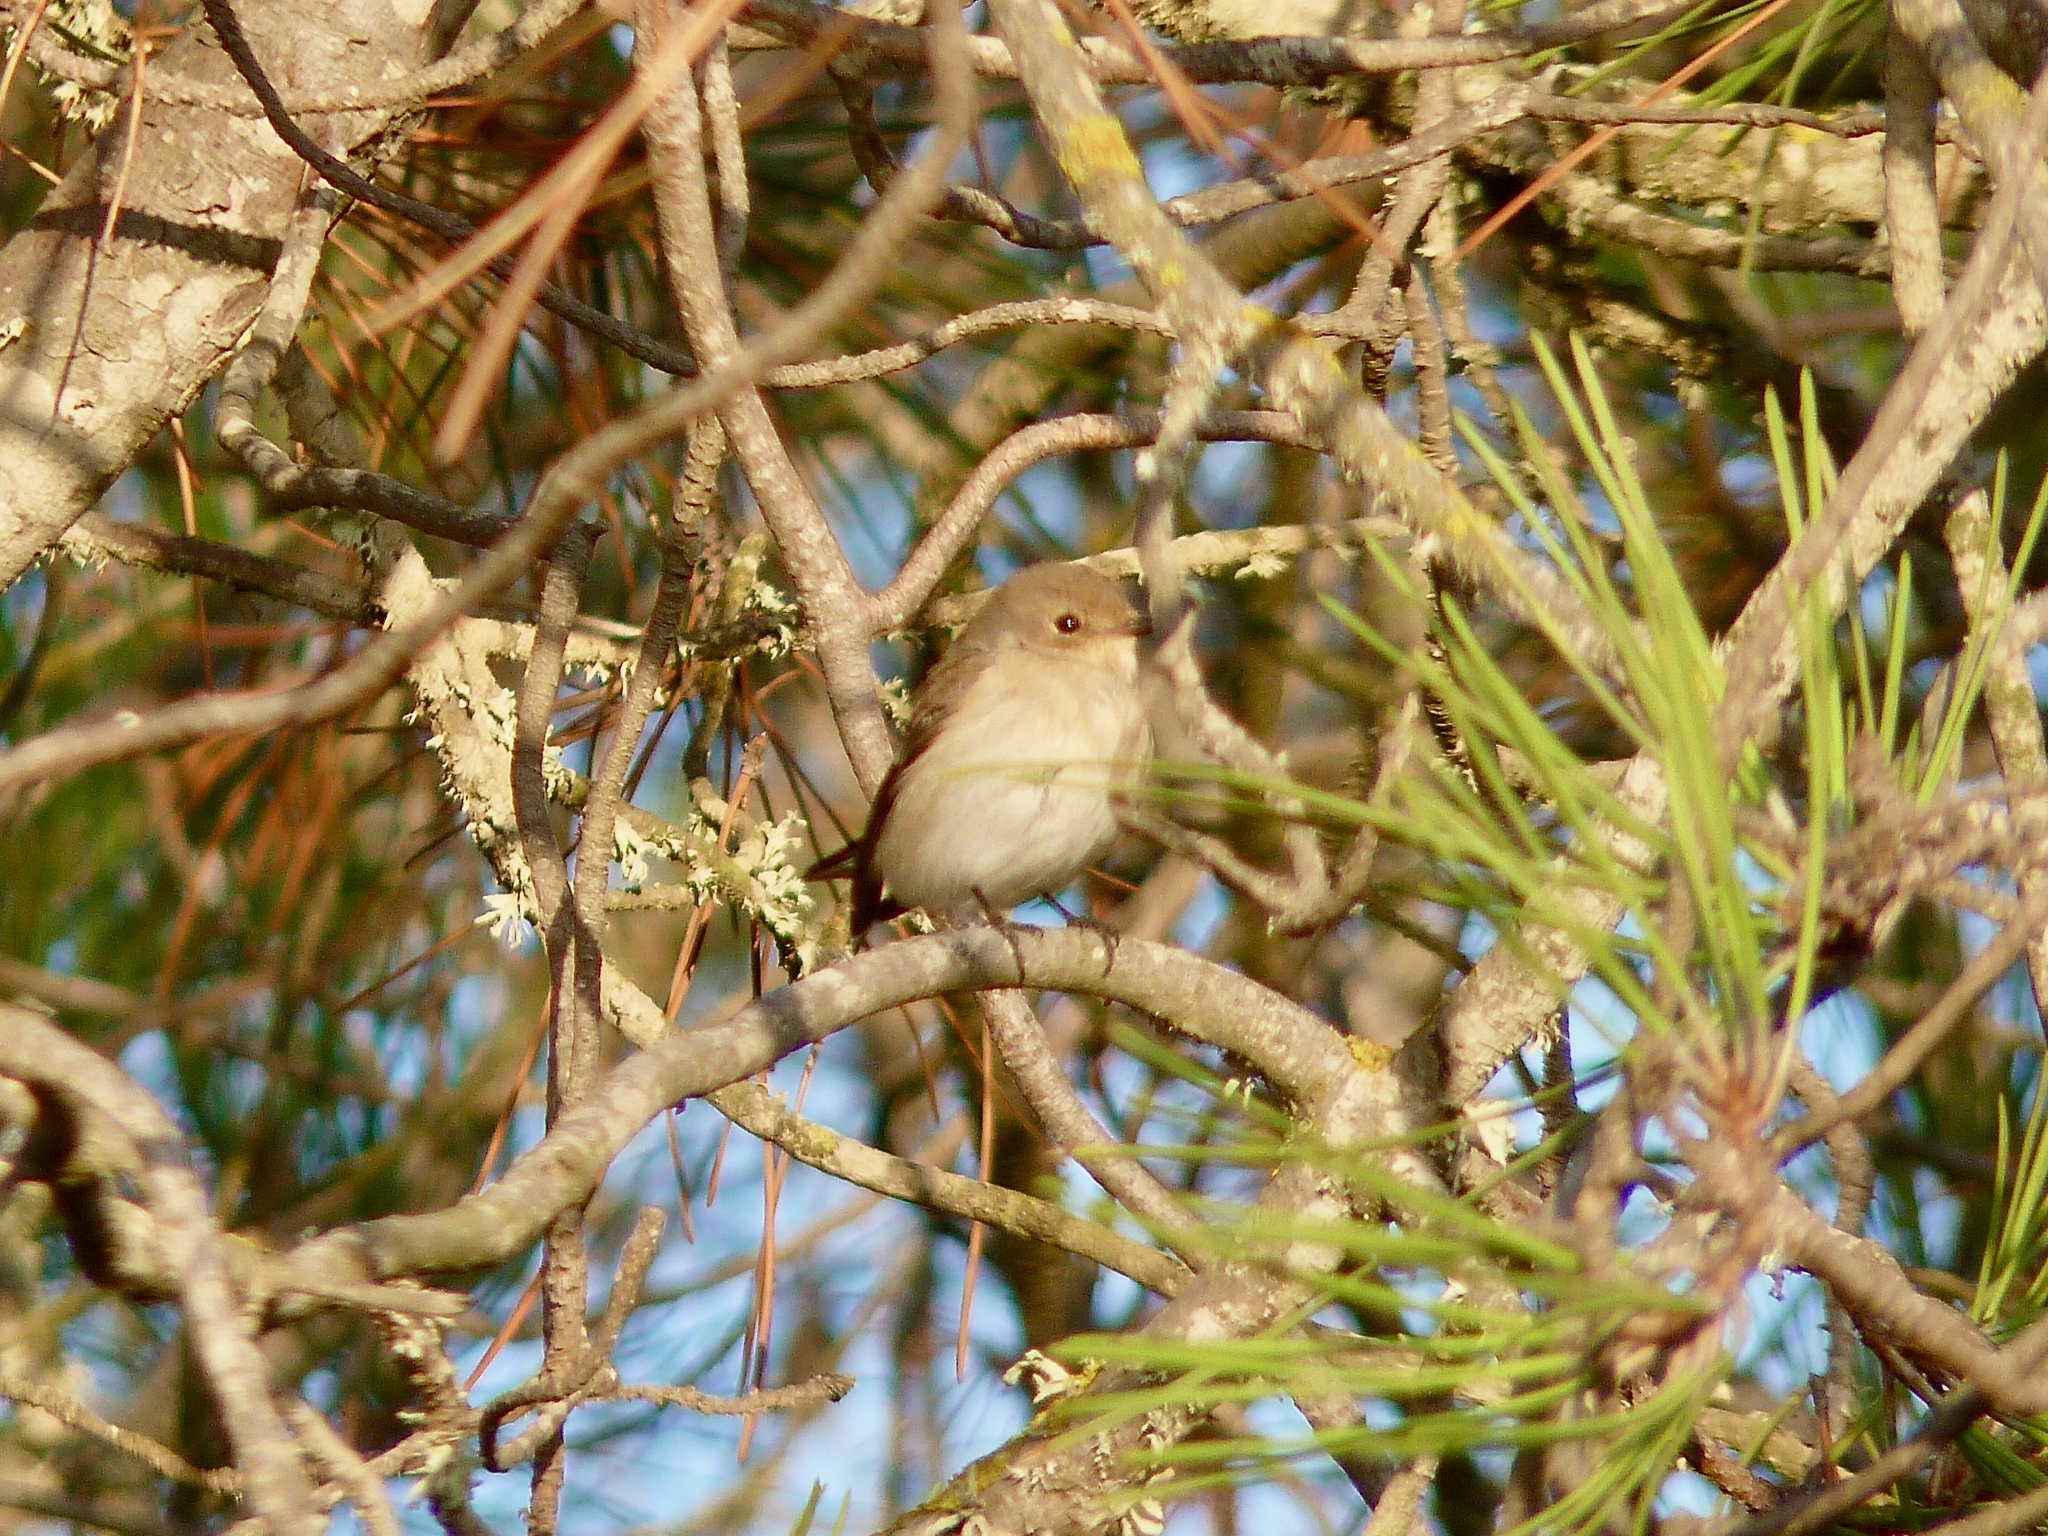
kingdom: Animalia
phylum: Chordata
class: Aves
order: Passeriformes
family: Muscicapidae
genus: Ficedula
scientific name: Ficedula hypoleuca
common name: European pied flycatcher
